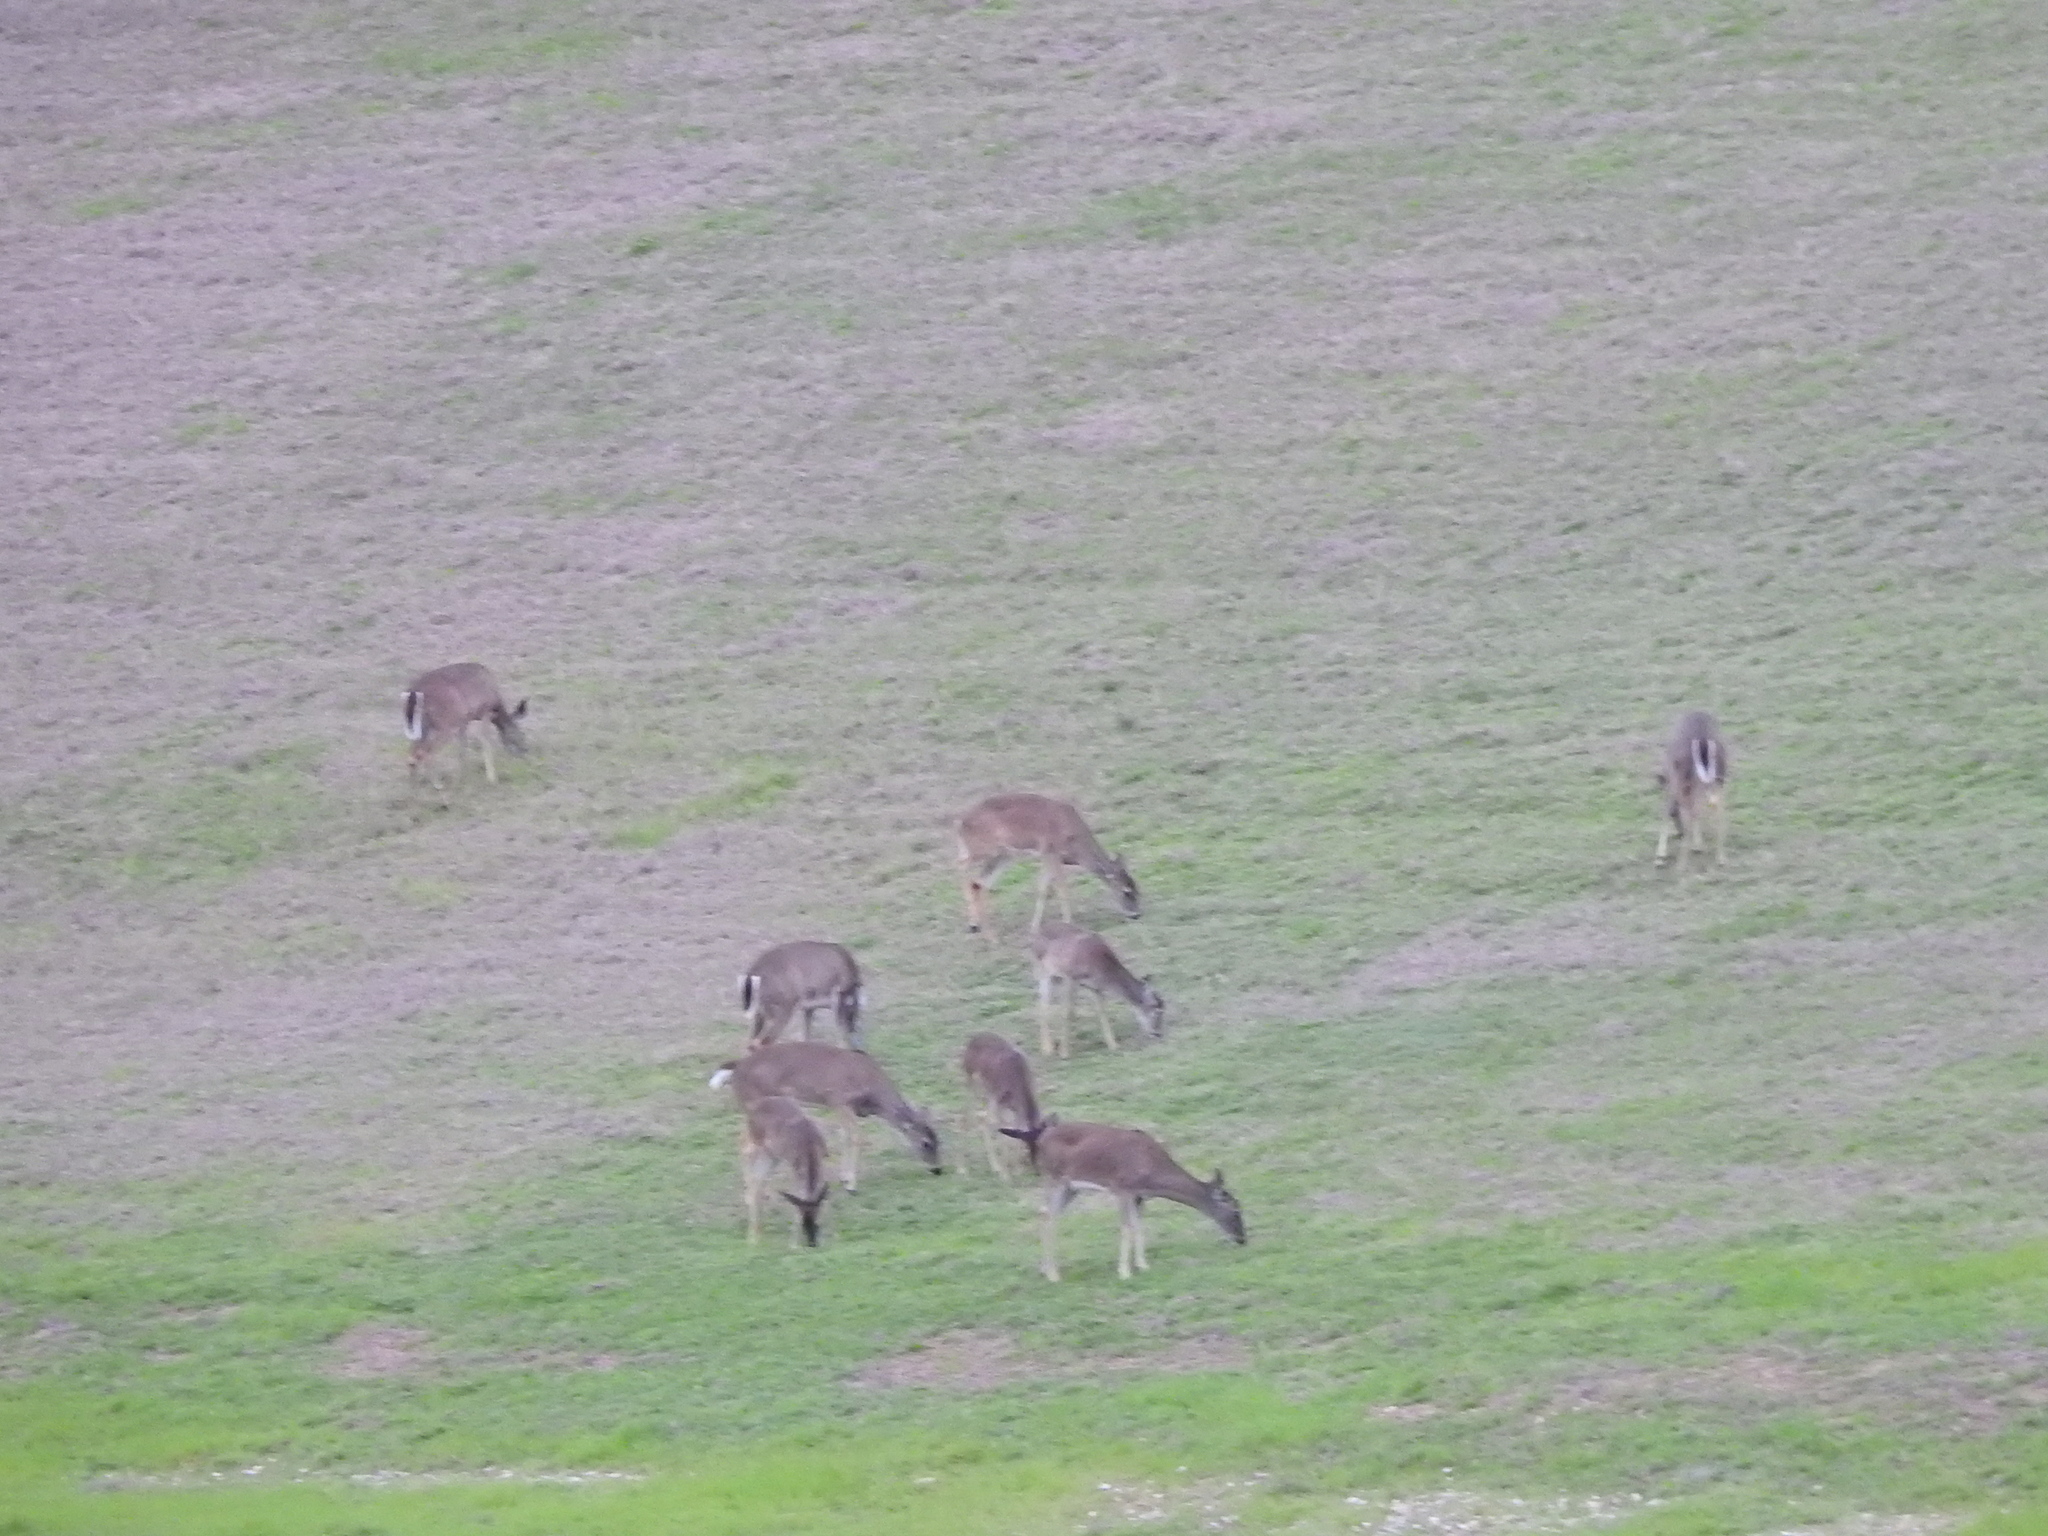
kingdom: Animalia
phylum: Chordata
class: Mammalia
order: Artiodactyla
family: Cervidae
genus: Odocoileus
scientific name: Odocoileus virginianus
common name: White-tailed deer
